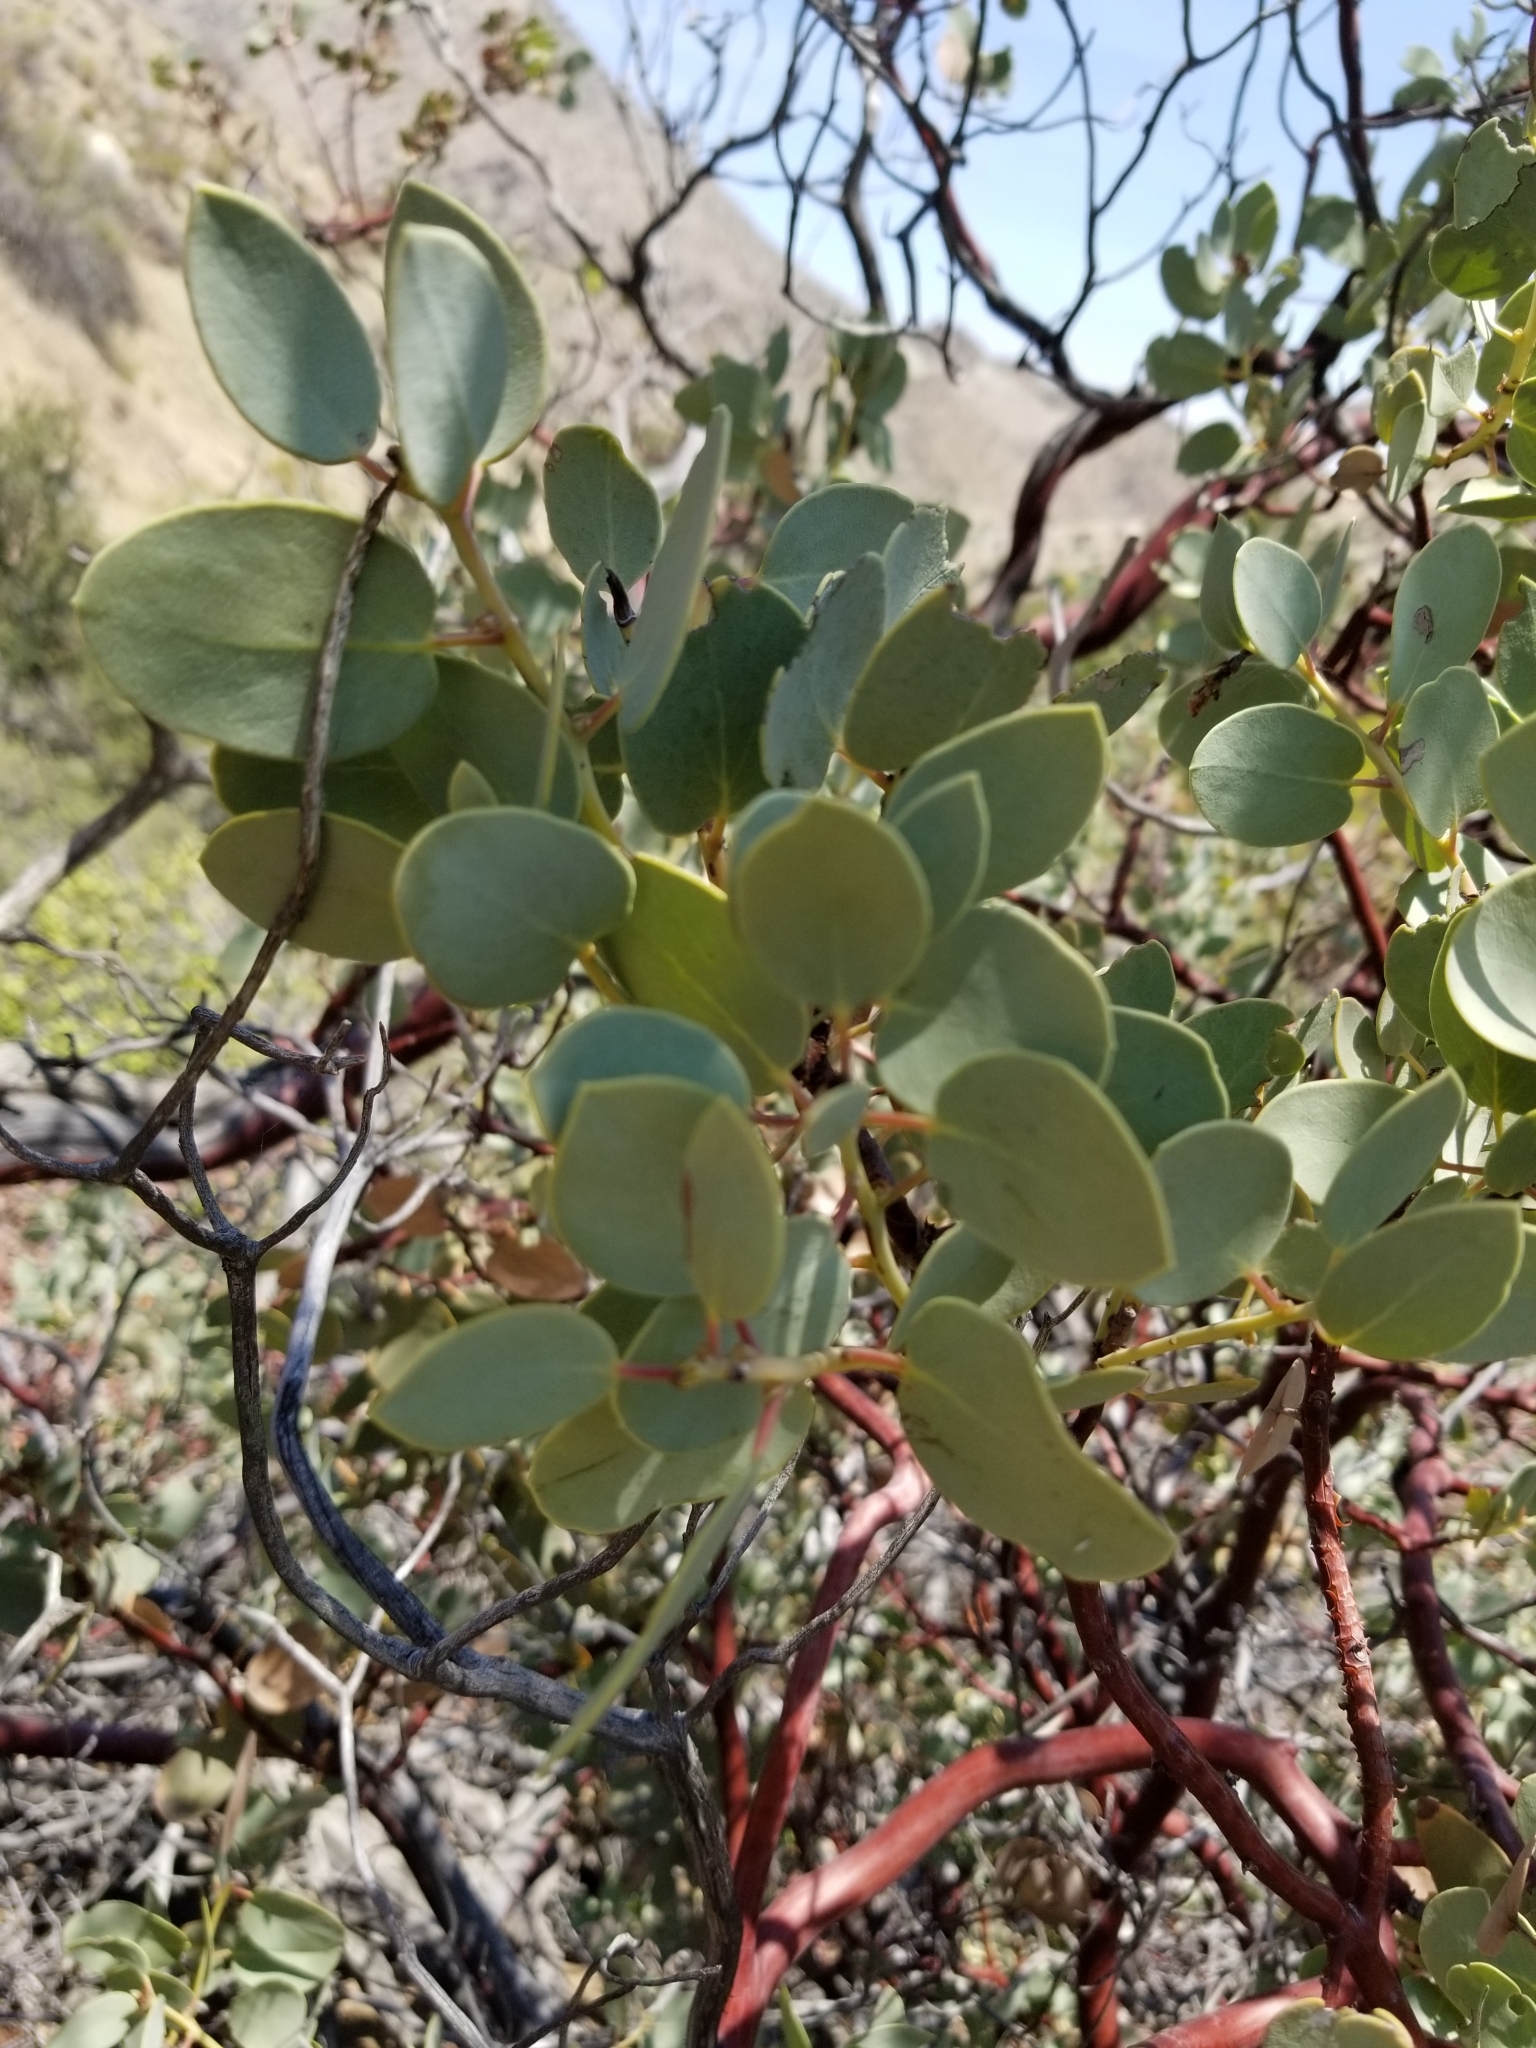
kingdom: Plantae
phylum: Tracheophyta
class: Magnoliopsida
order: Ericales
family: Ericaceae
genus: Arctostaphylos
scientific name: Arctostaphylos glauca
